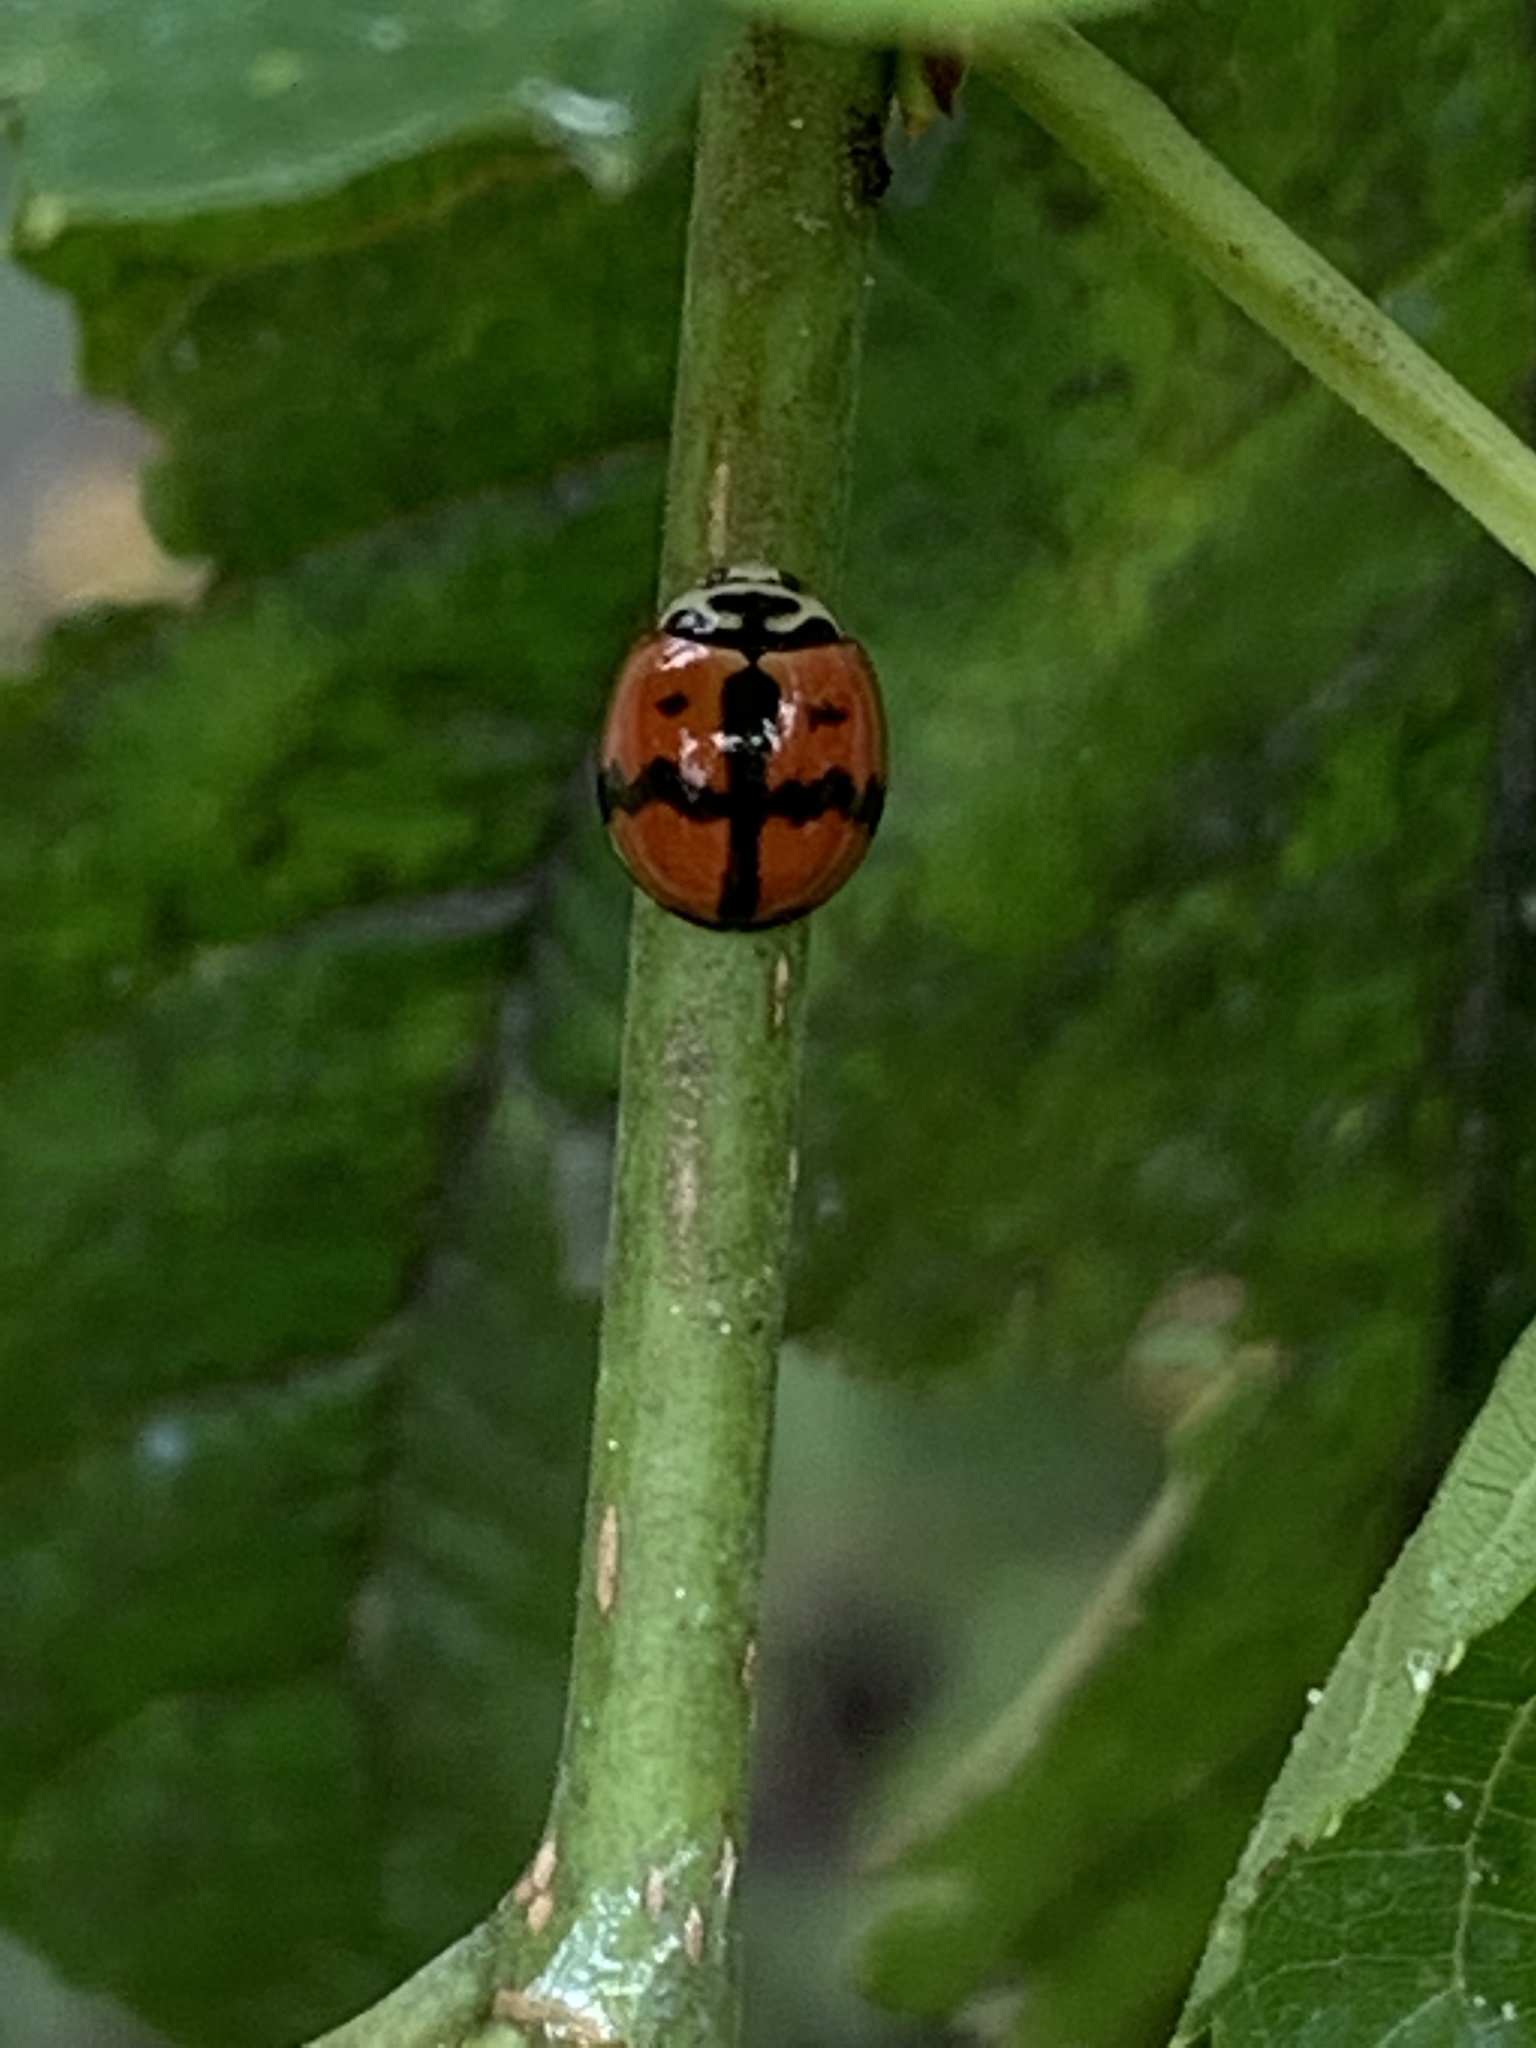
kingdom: Animalia
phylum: Arthropoda
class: Insecta
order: Coleoptera
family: Coccinellidae
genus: Cheilomenes
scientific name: Cheilomenes sexmaculata
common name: Ladybird beetle
